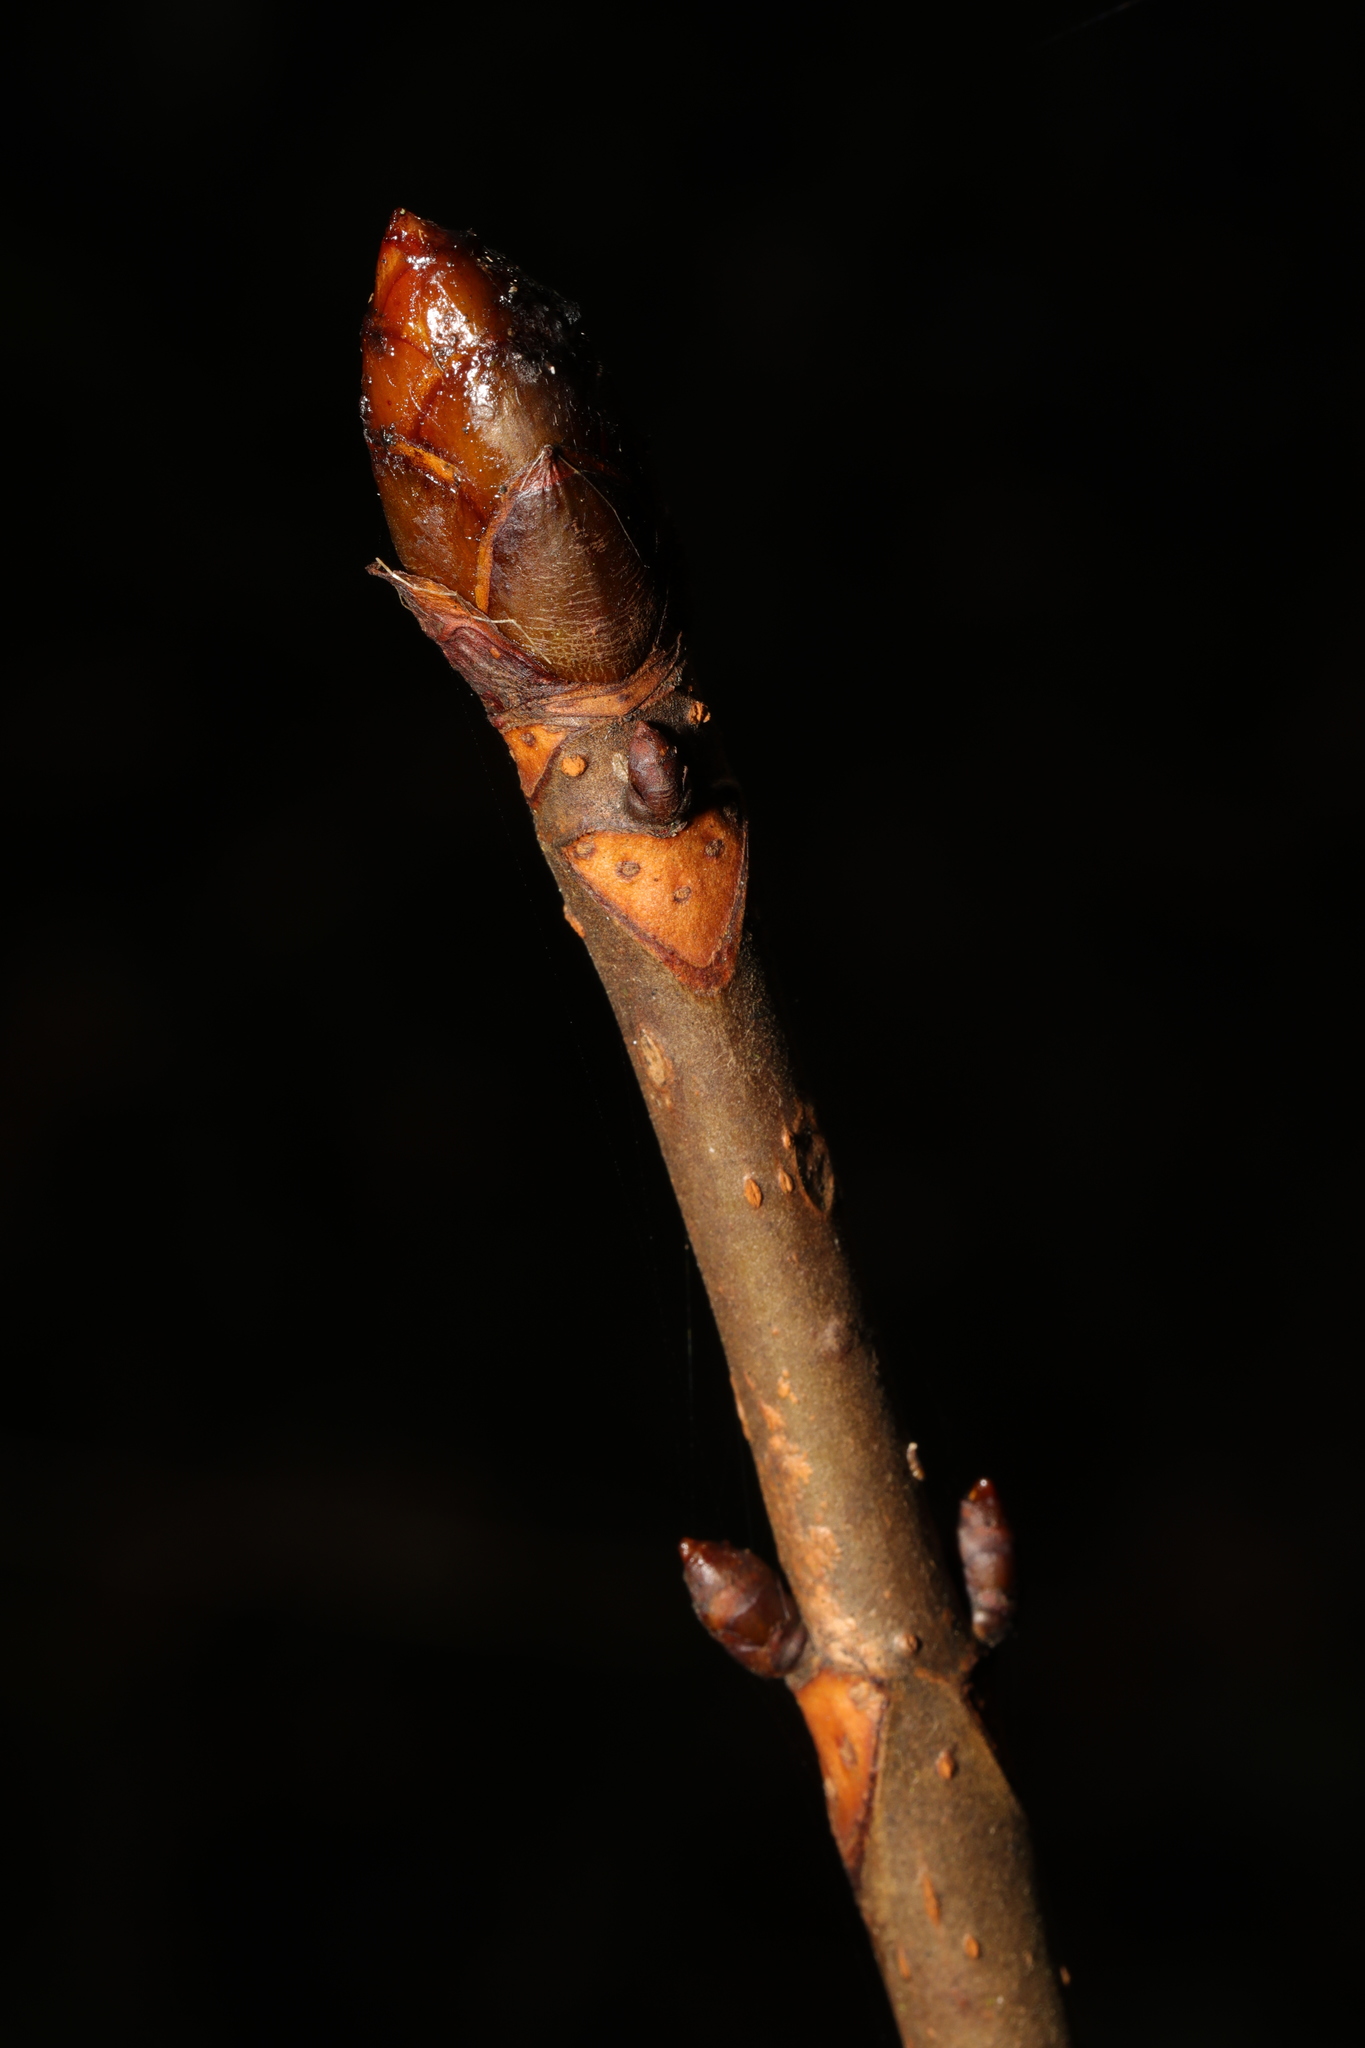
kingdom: Plantae
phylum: Tracheophyta
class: Magnoliopsida
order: Sapindales
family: Sapindaceae
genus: Aesculus
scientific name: Aesculus hippocastanum
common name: Horse-chestnut
